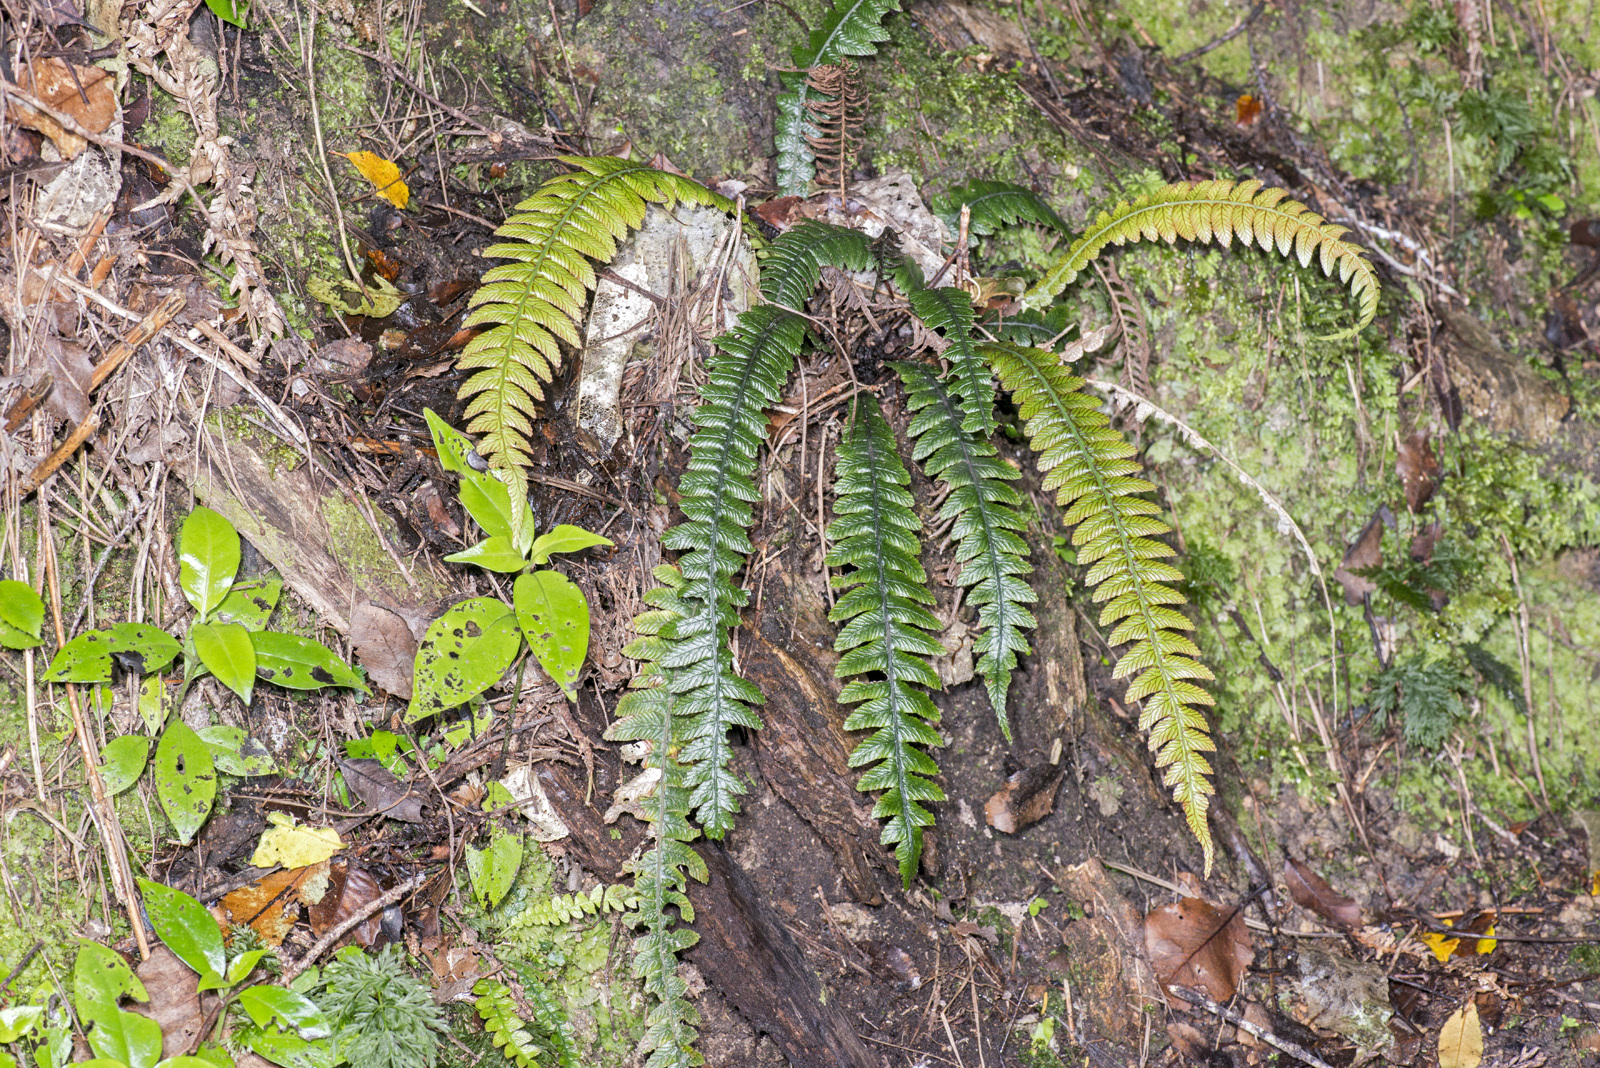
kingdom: Plantae
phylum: Tracheophyta
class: Polypodiopsida
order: Polypodiales
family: Blechnaceae
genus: Austroblechnum
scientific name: Austroblechnum lanceolatum
